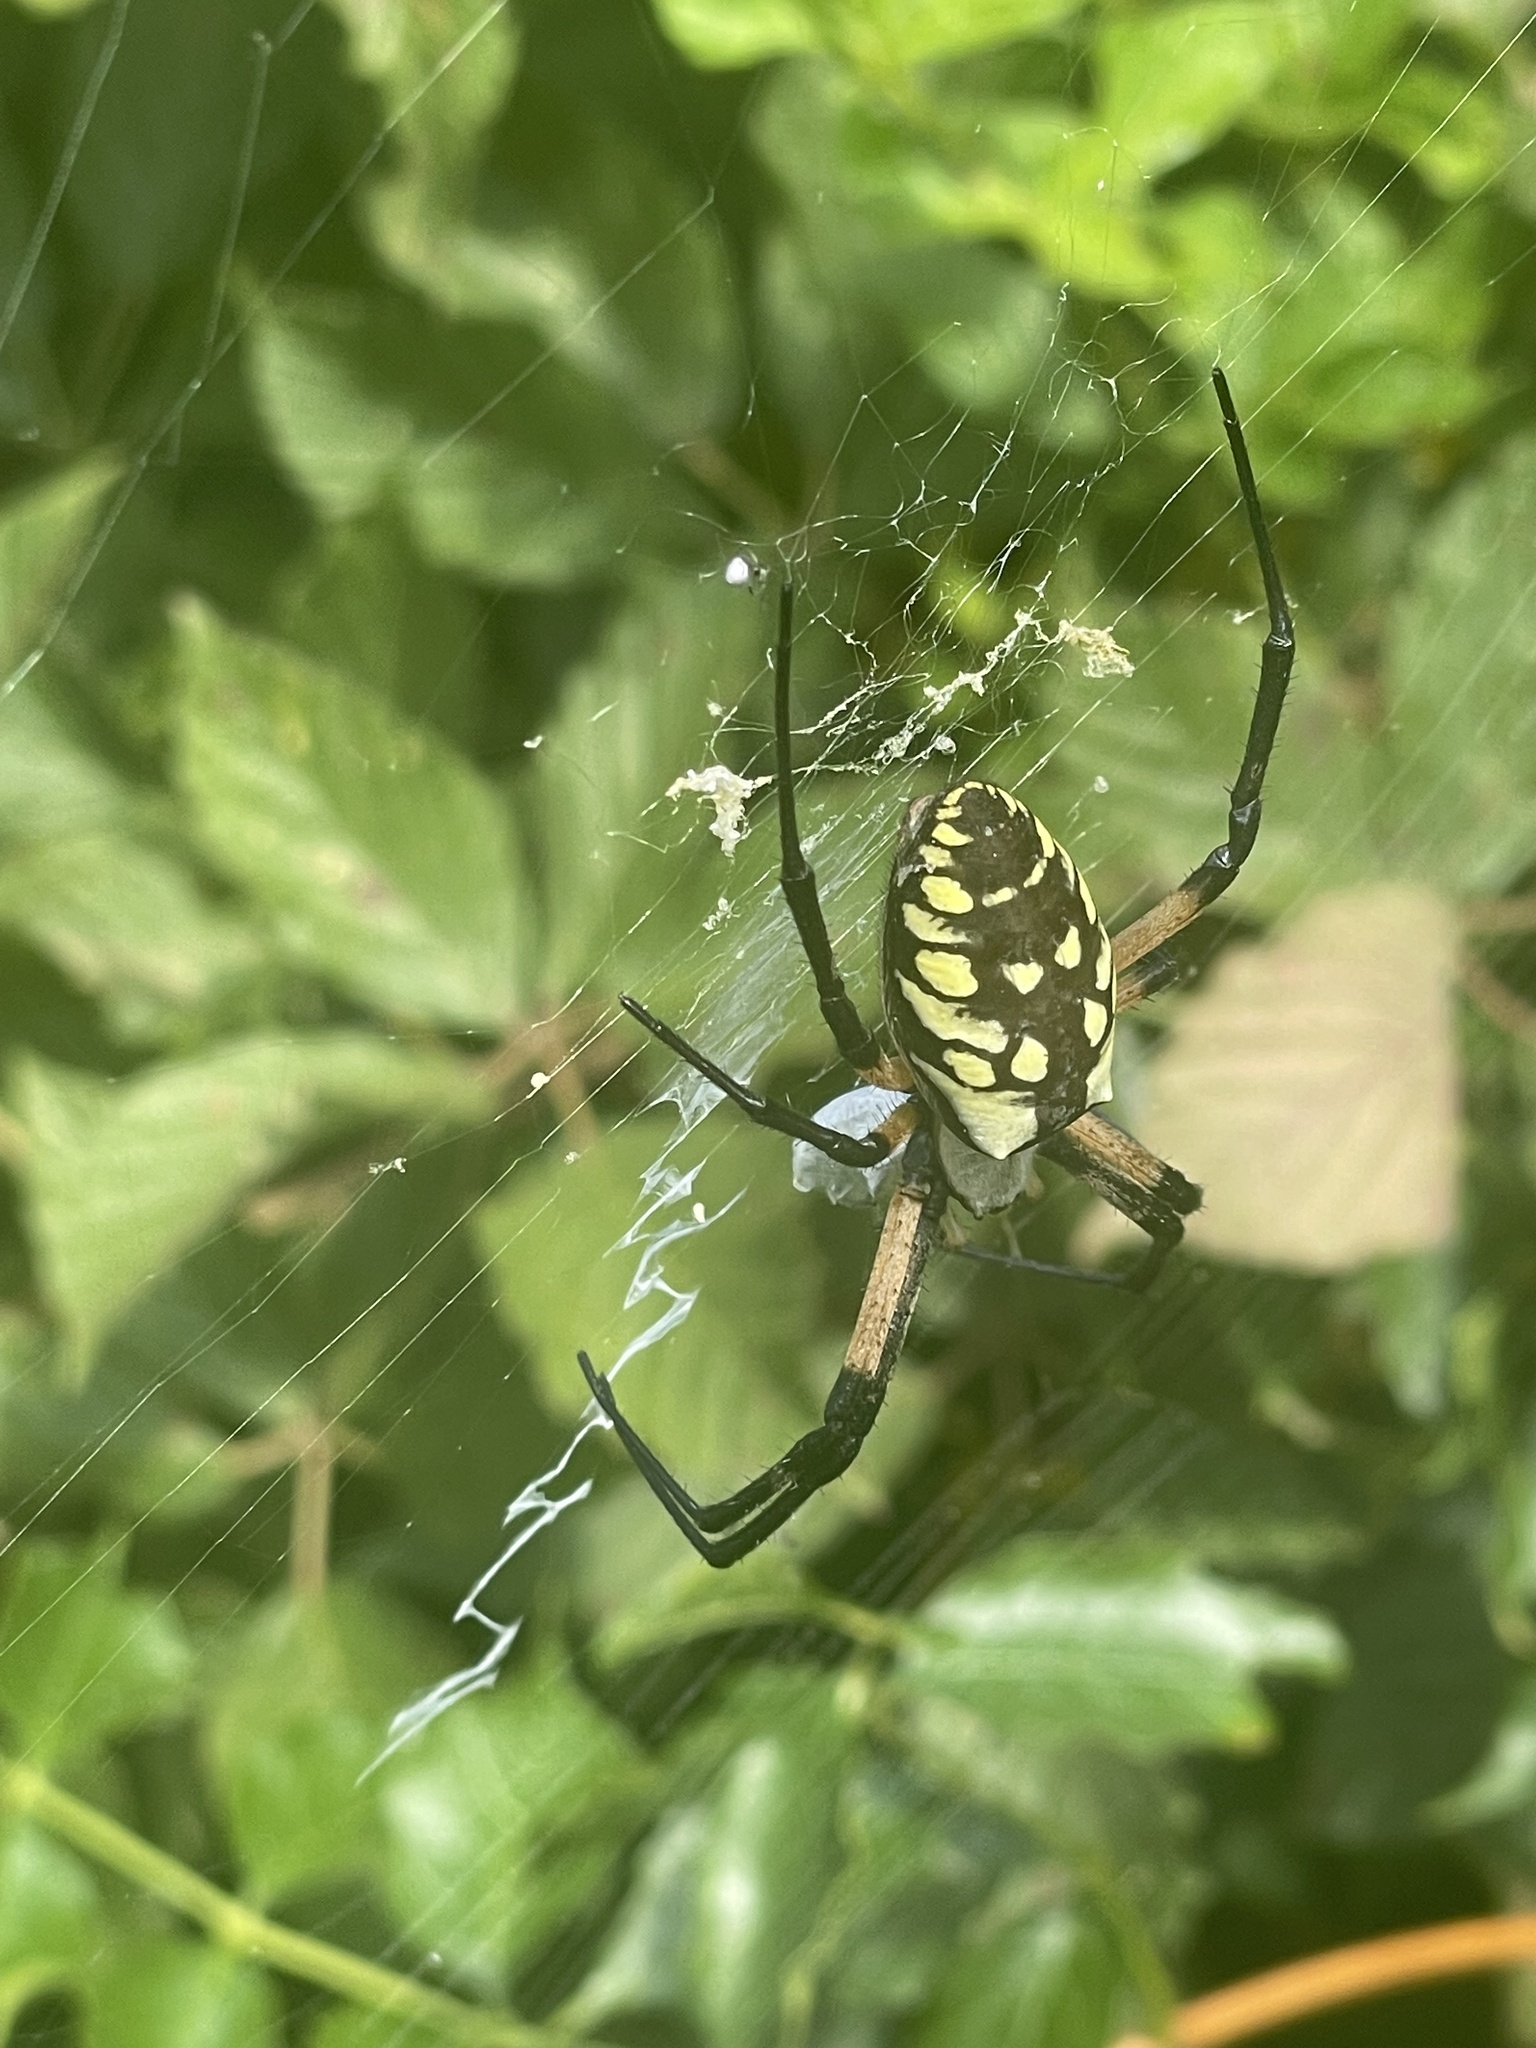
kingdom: Animalia
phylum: Arthropoda
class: Arachnida
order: Araneae
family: Araneidae
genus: Argiope
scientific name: Argiope aurantia
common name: Orb weavers
